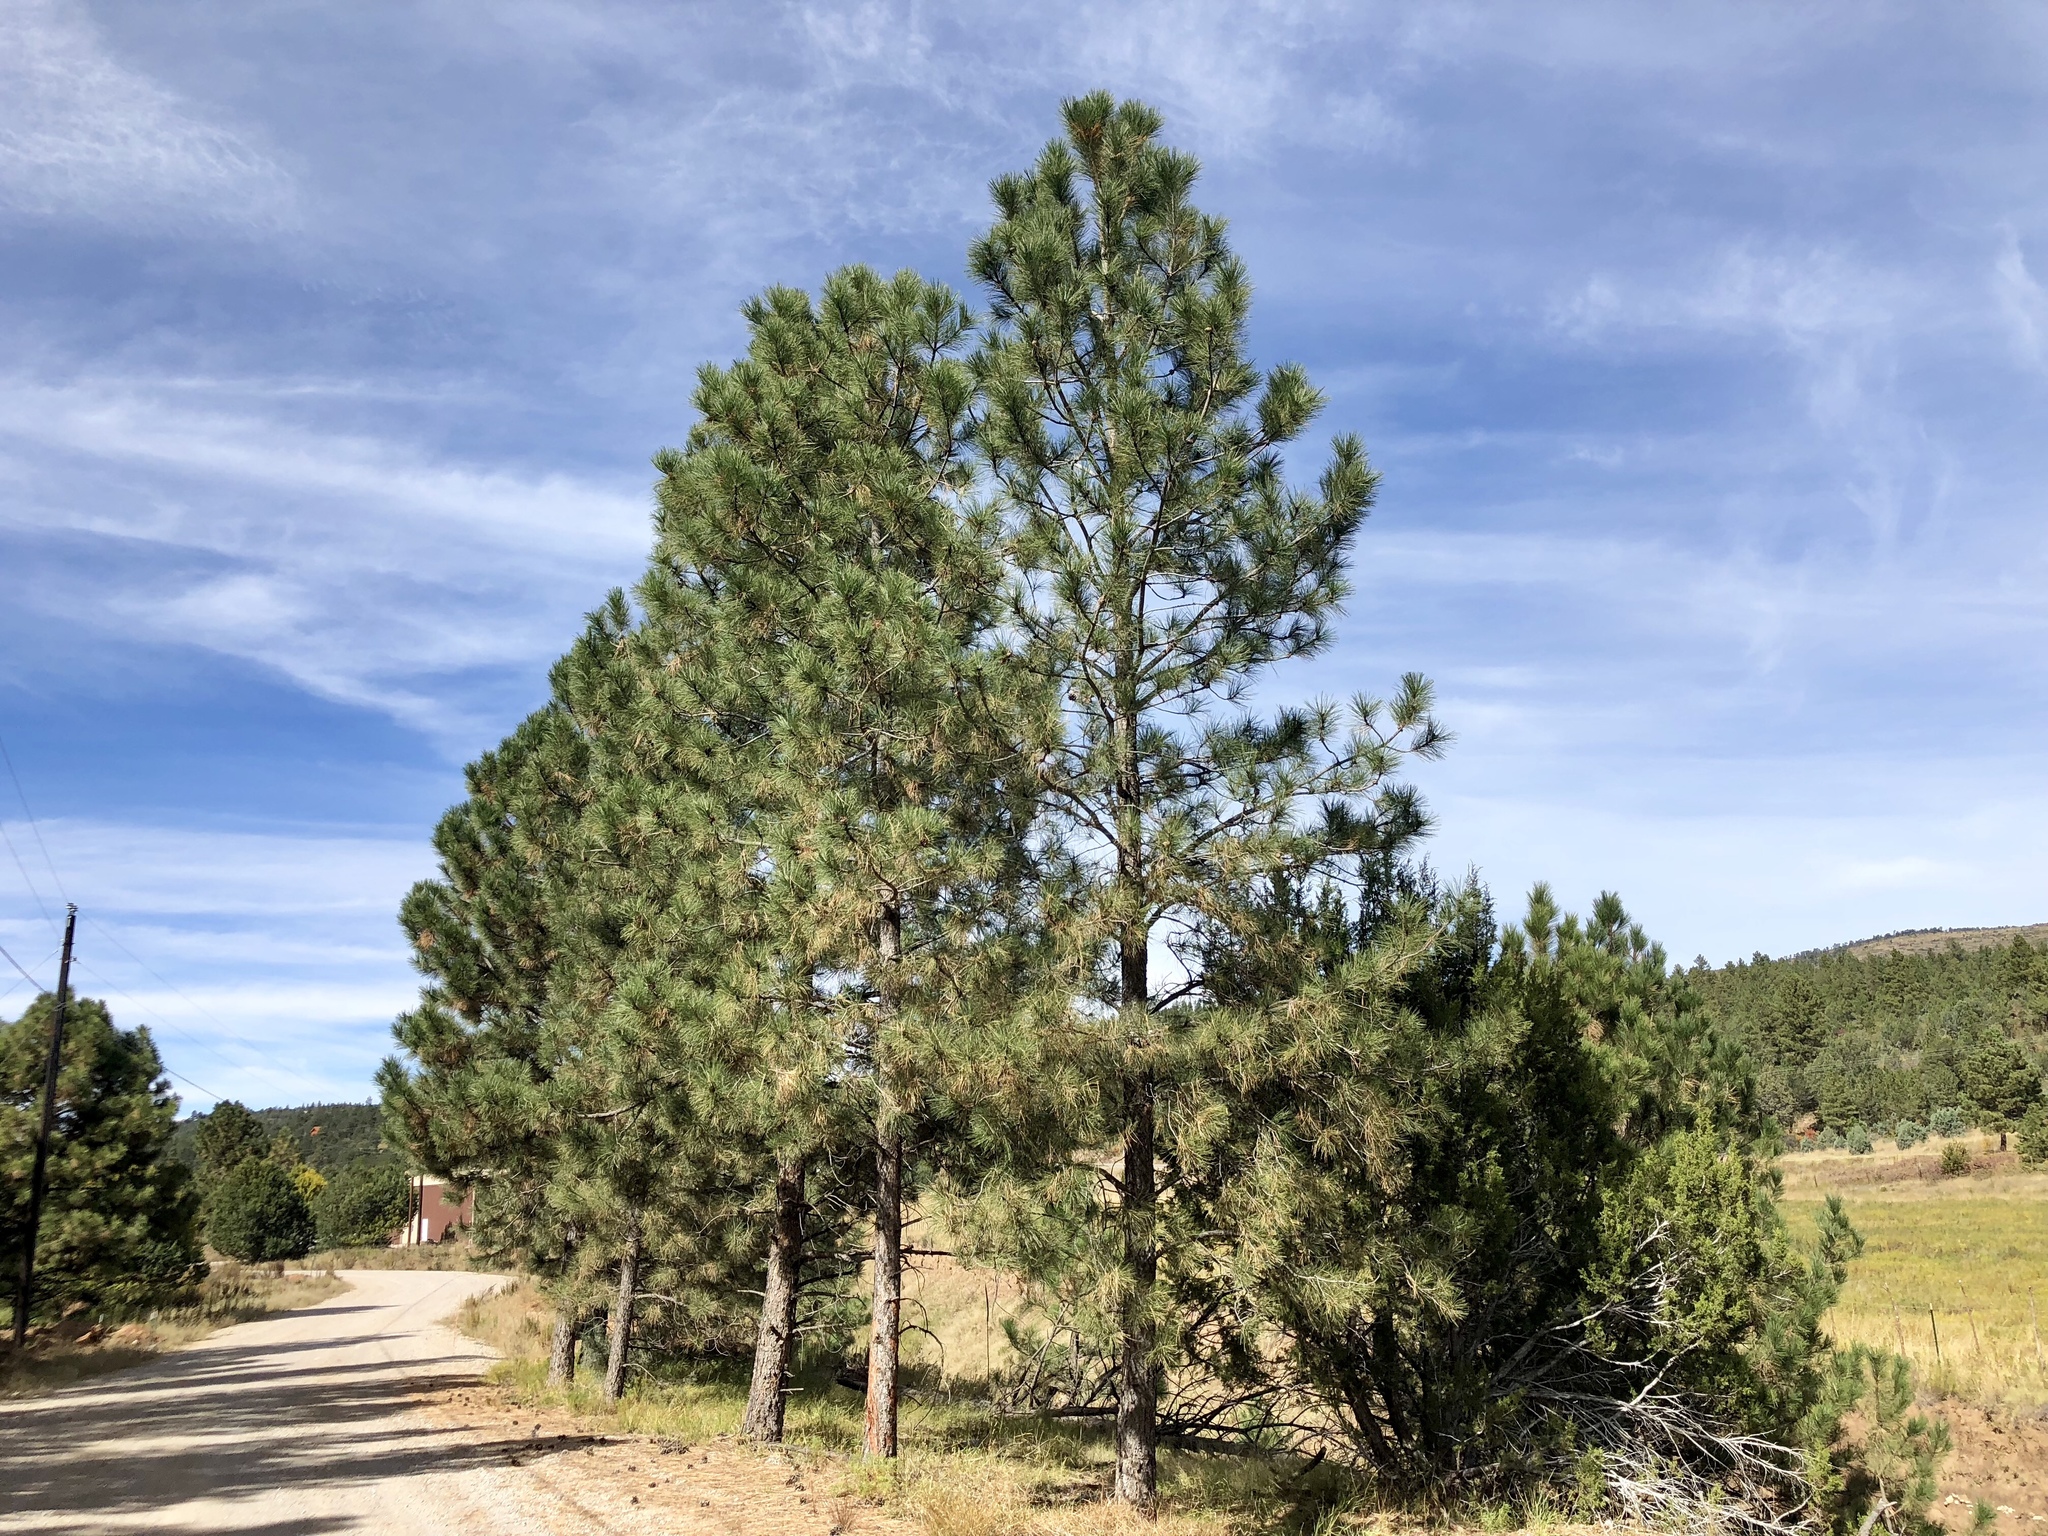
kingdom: Plantae
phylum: Tracheophyta
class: Pinopsida
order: Pinales
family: Pinaceae
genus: Pinus
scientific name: Pinus ponderosa
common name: Western yellow-pine
